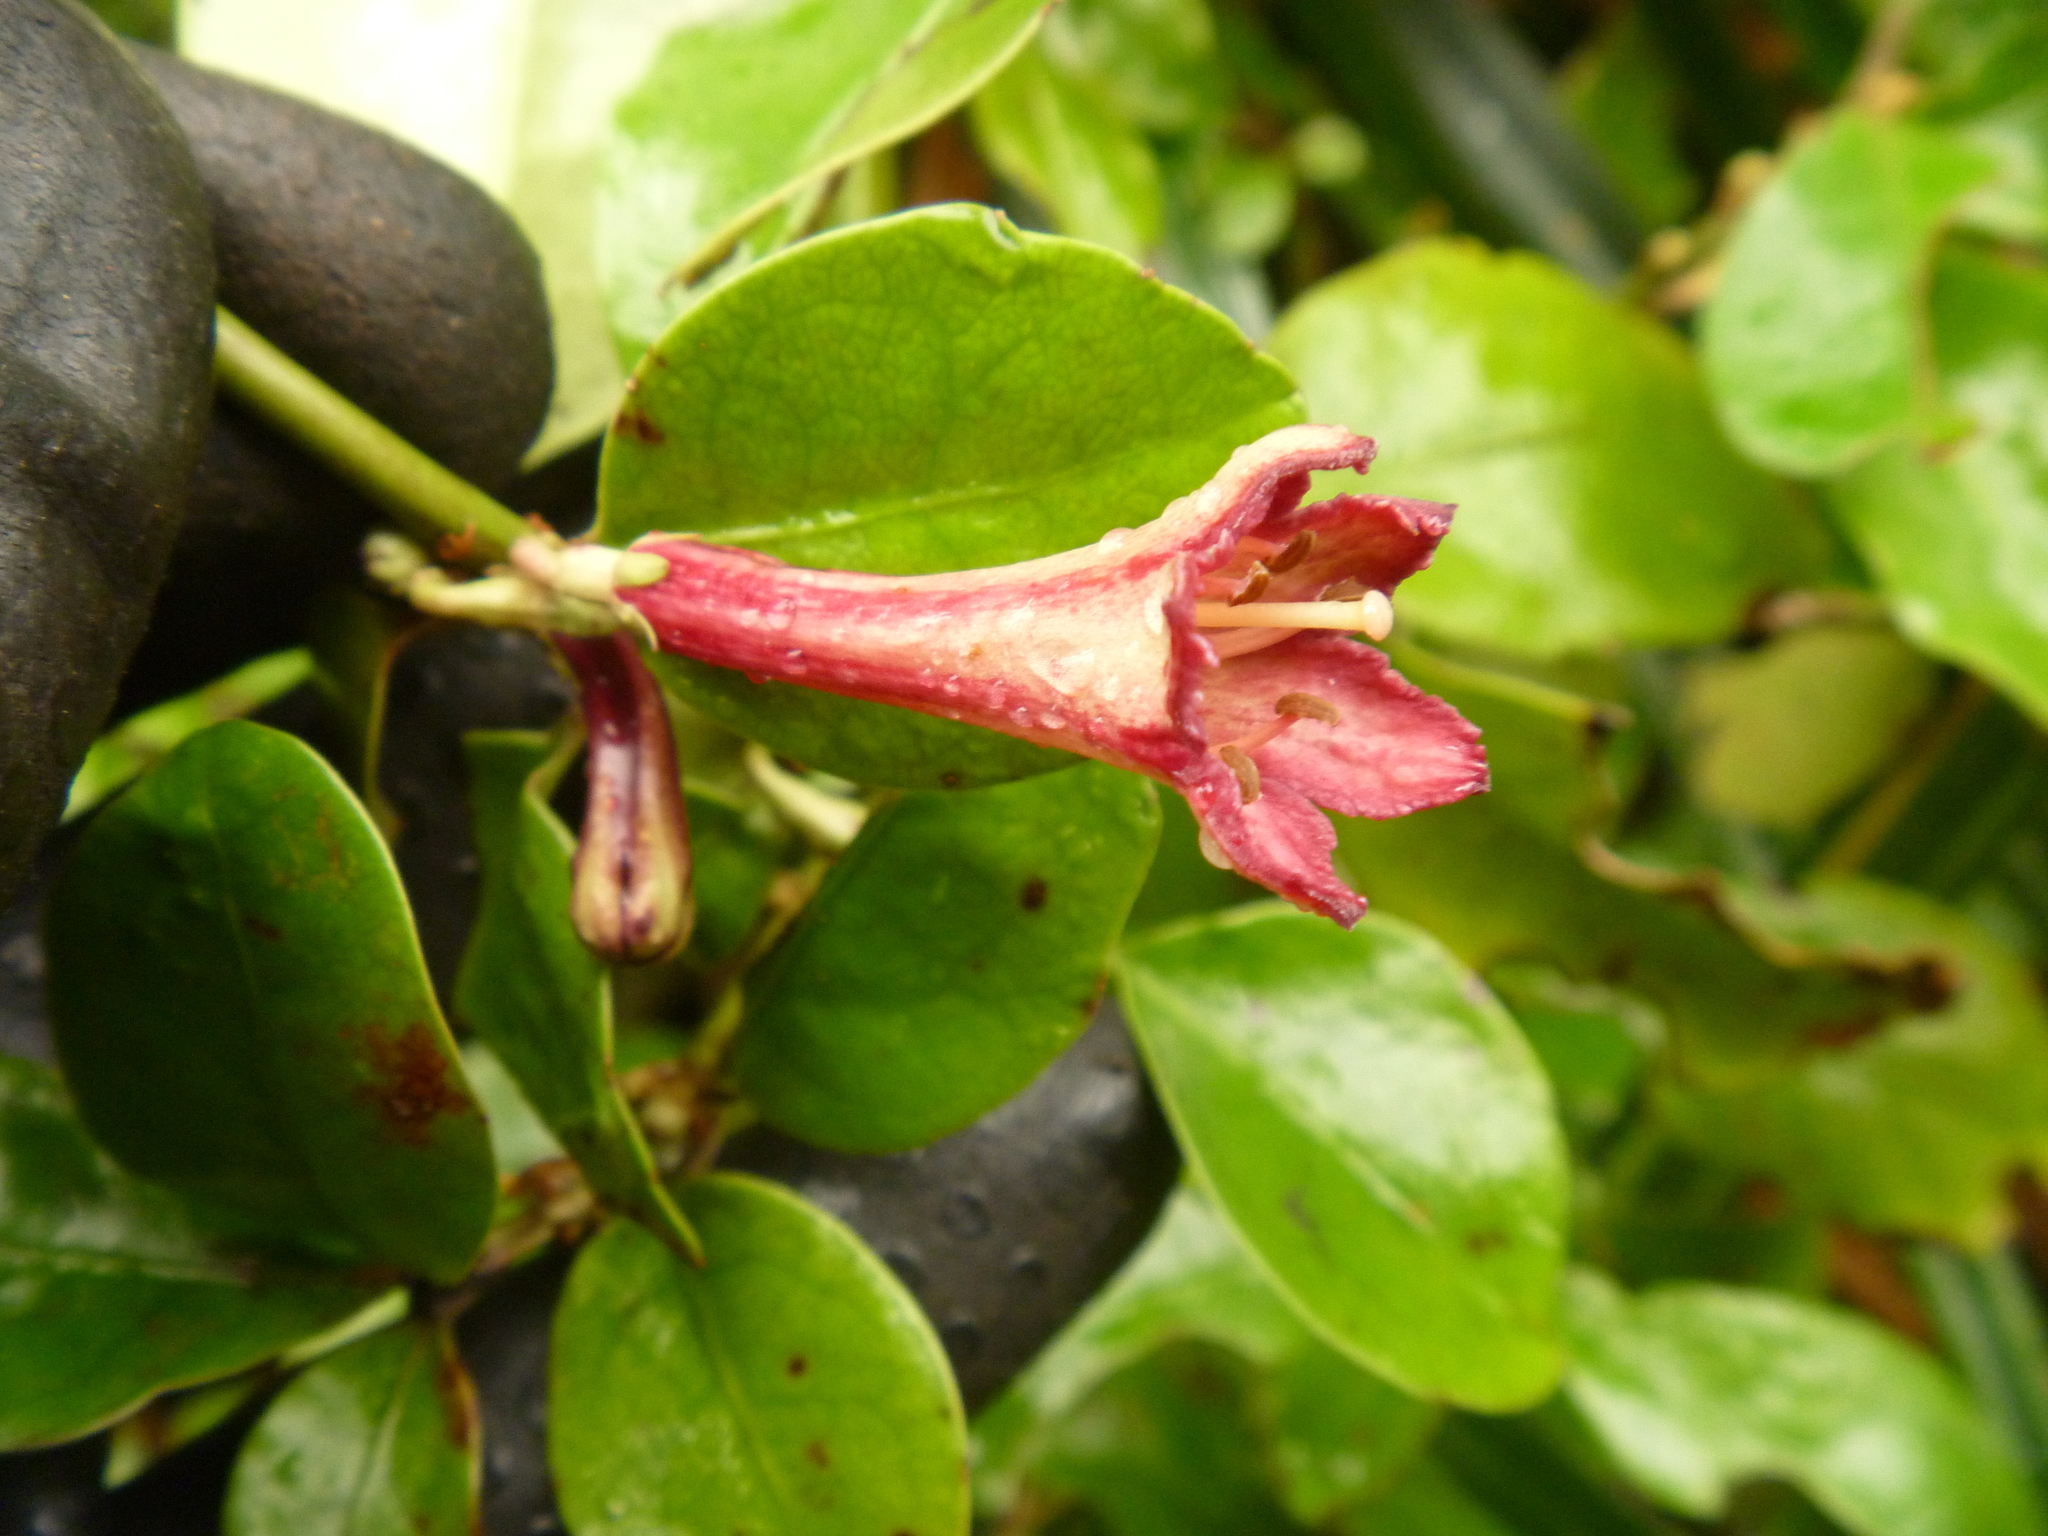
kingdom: Plantae
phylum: Tracheophyta
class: Magnoliopsida
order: Asterales
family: Alseuosmiaceae
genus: Alseuosmia
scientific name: Alseuosmia macrophylla
